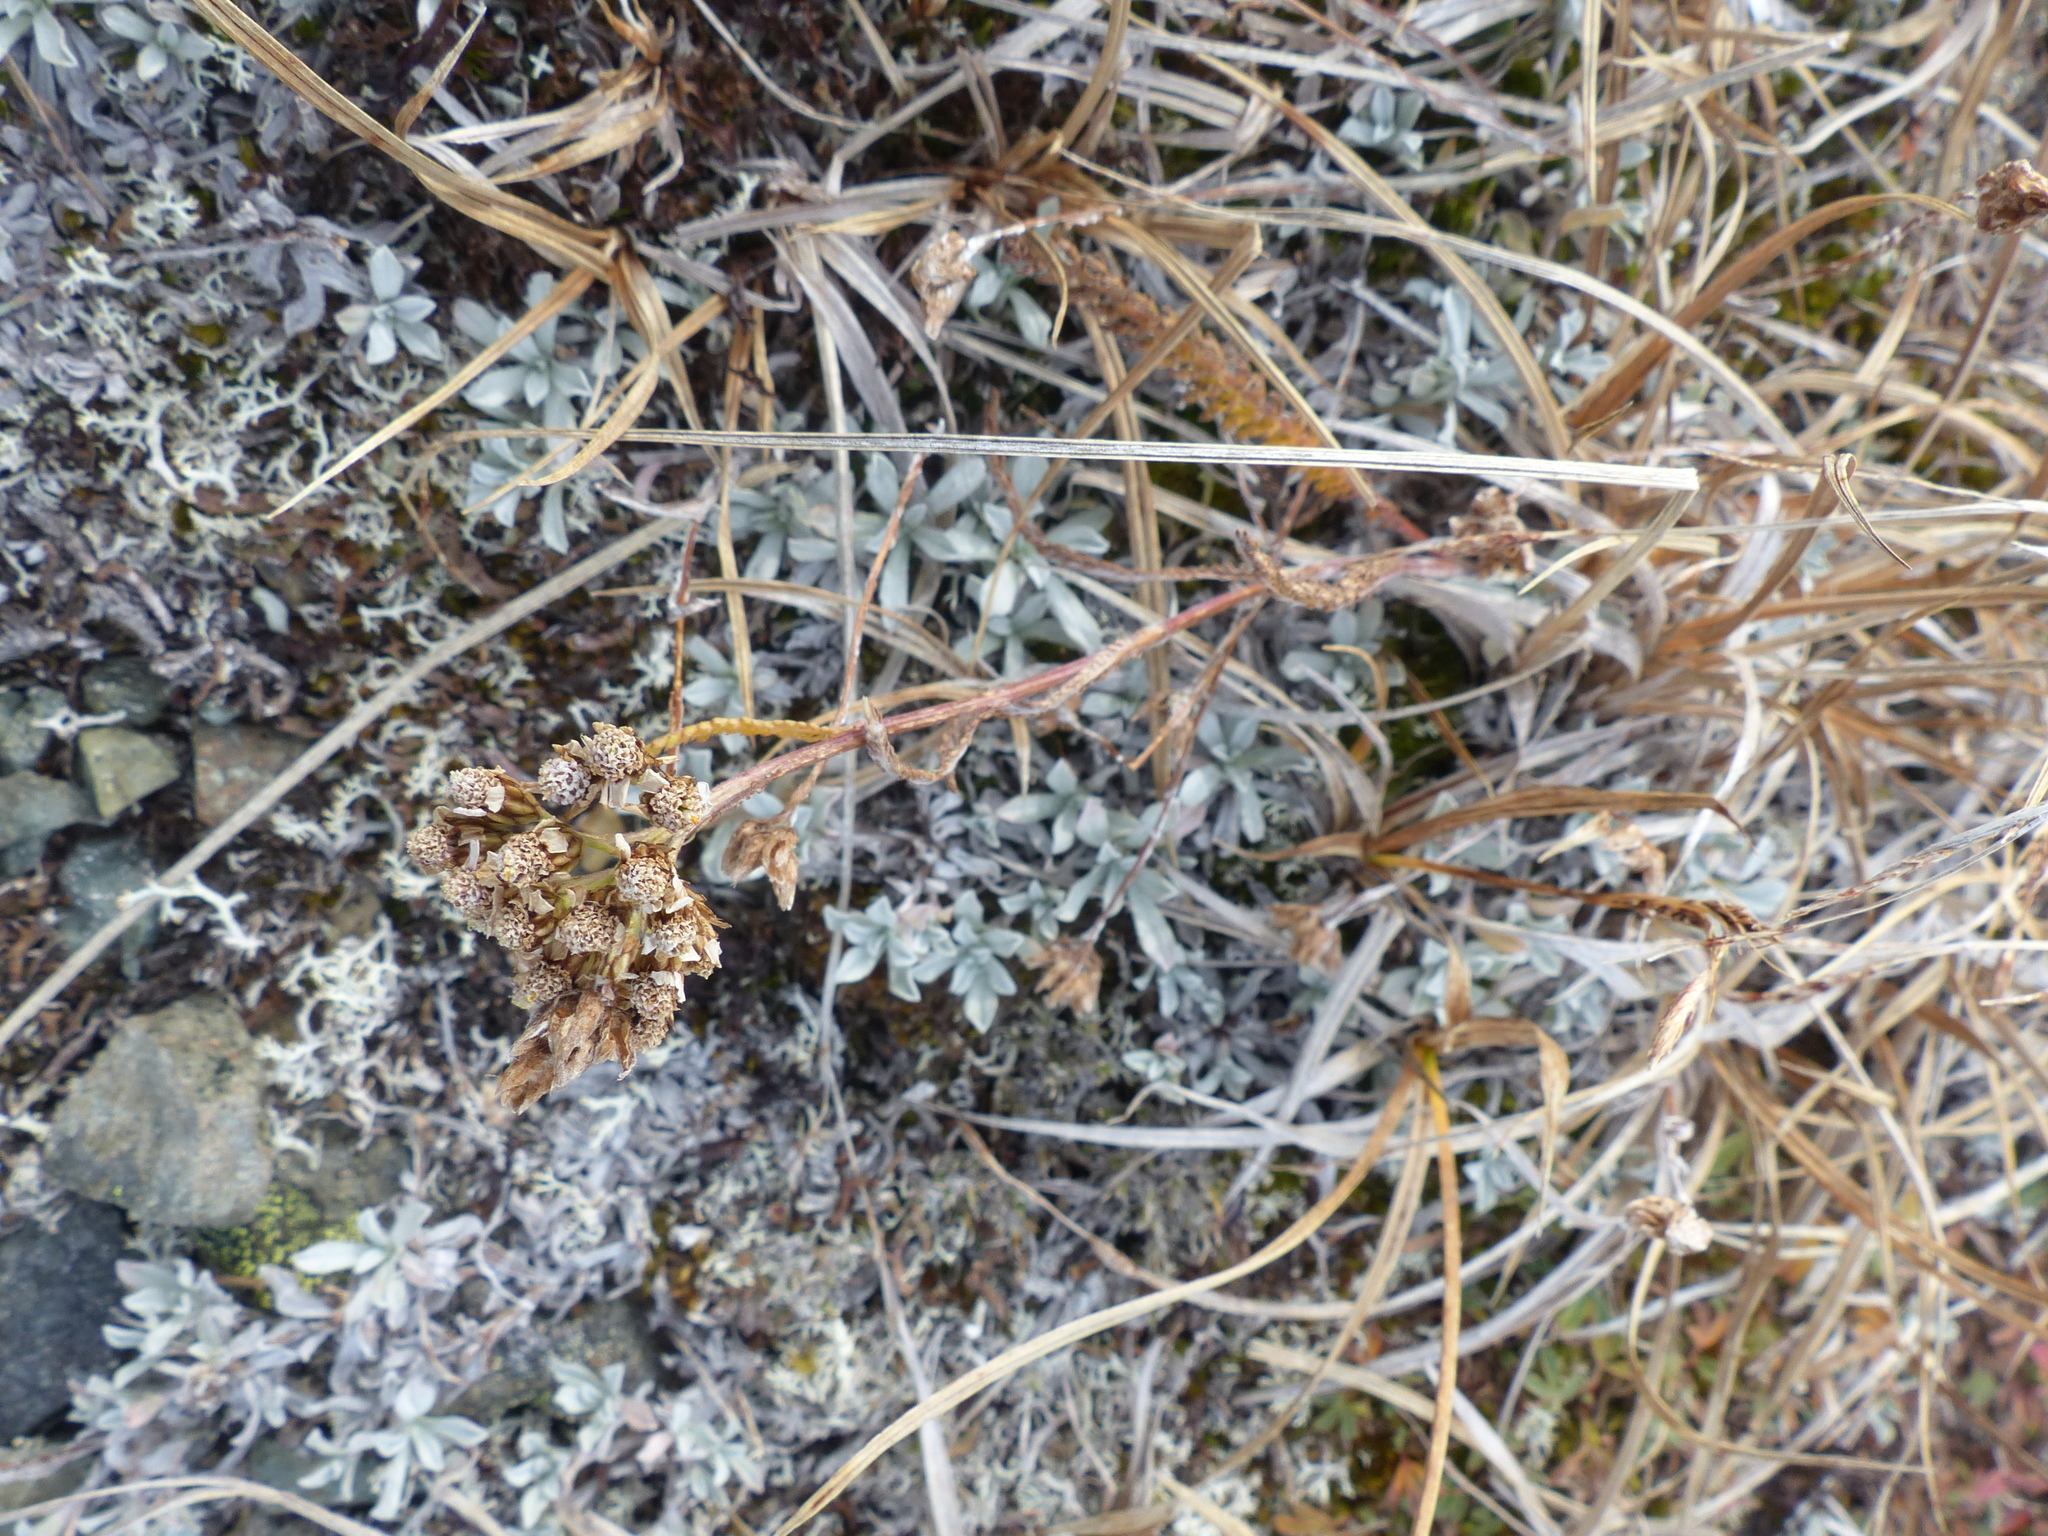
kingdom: Plantae
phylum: Tracheophyta
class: Magnoliopsida
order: Asterales
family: Asteraceae
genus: Achillea
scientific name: Achillea millefolium
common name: Yarrow
